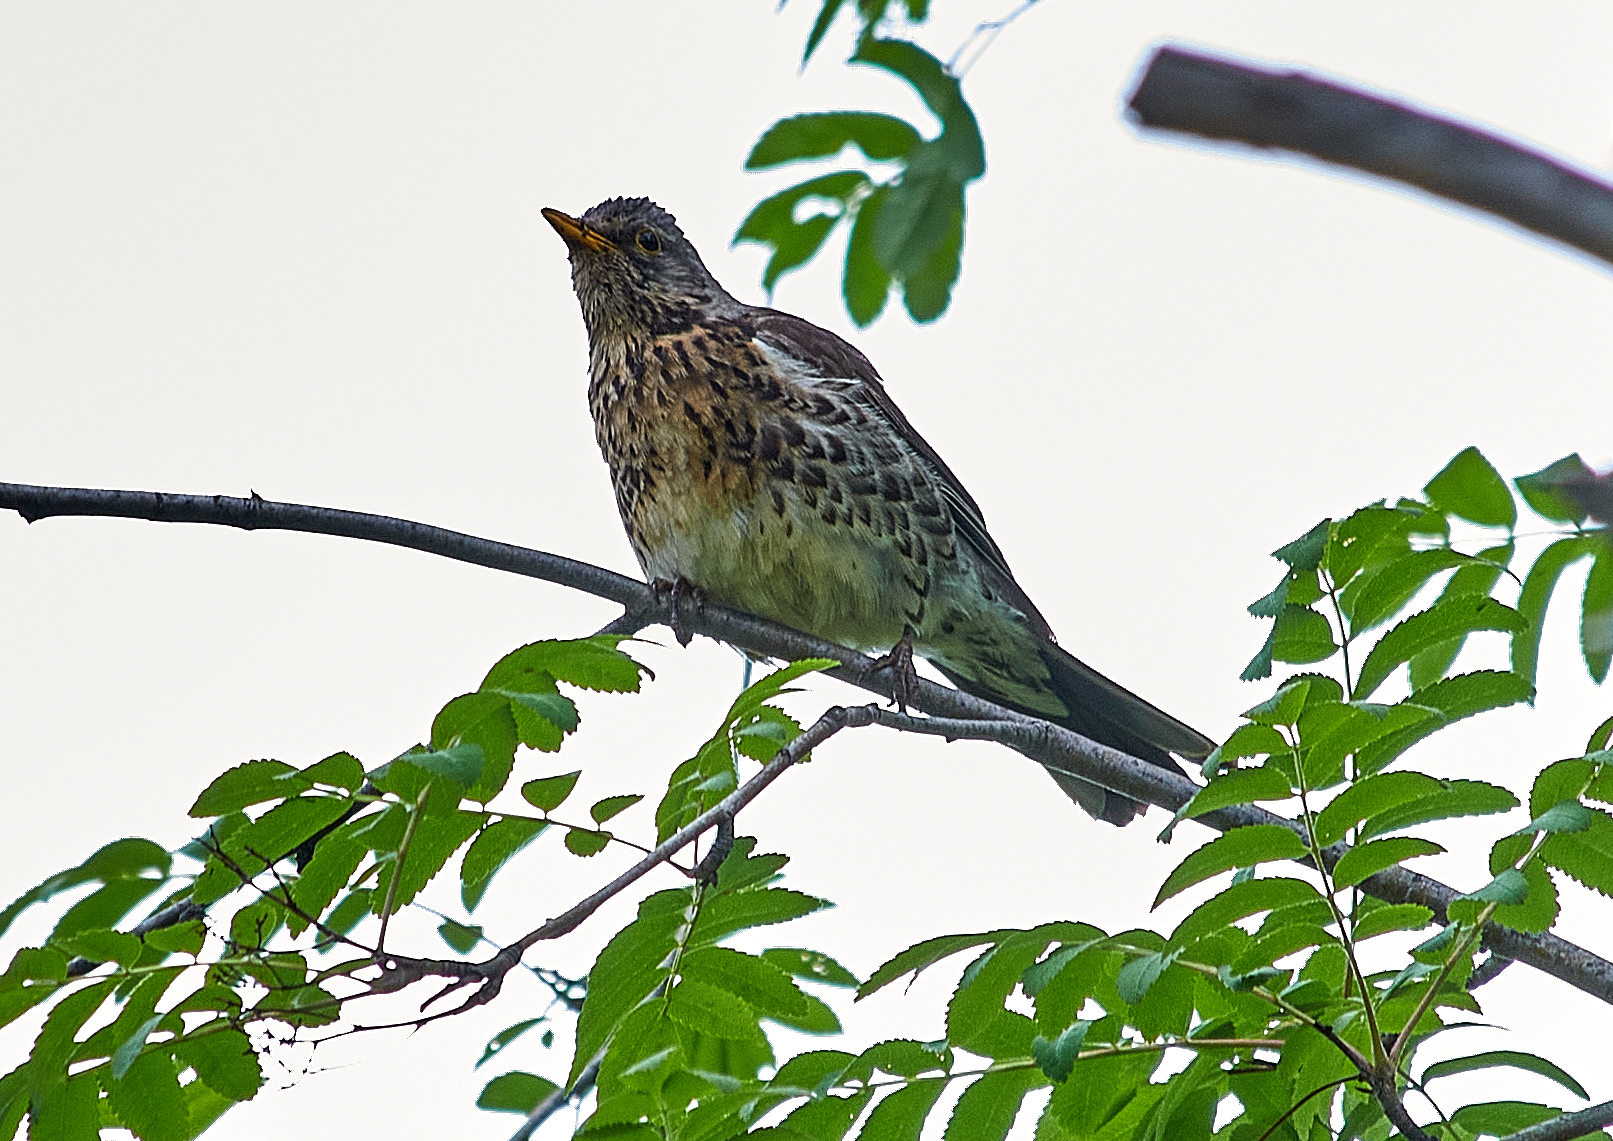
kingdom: Animalia
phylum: Chordata
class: Aves
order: Passeriformes
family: Turdidae
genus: Turdus
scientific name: Turdus pilaris
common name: Fieldfare
